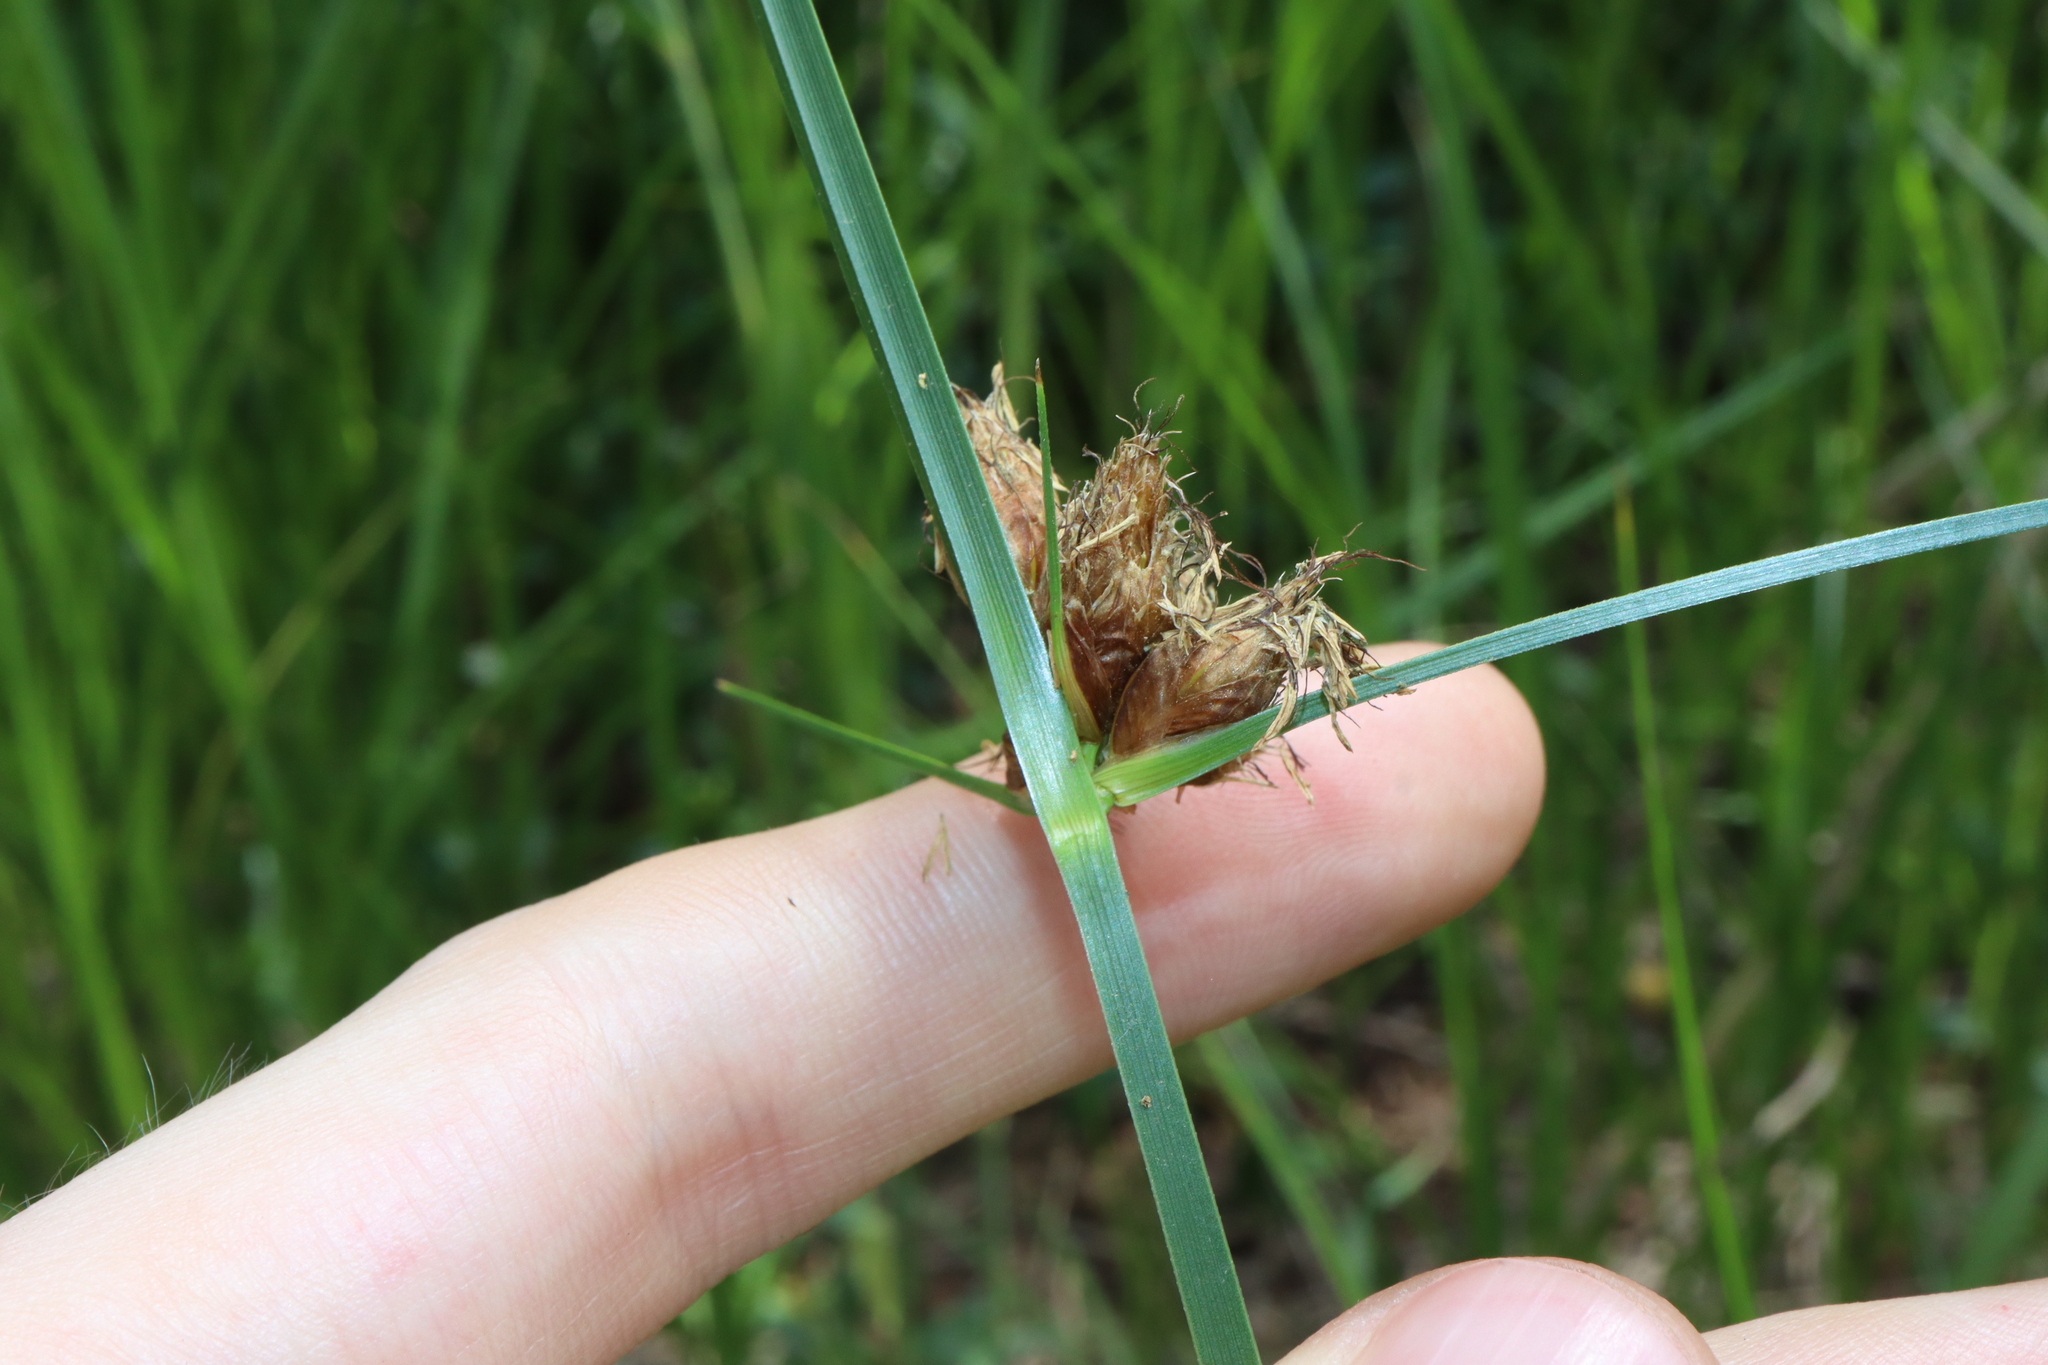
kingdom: Plantae
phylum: Tracheophyta
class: Liliopsida
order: Poales
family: Cyperaceae
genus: Bolboschoenus
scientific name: Bolboschoenus caldwellii
